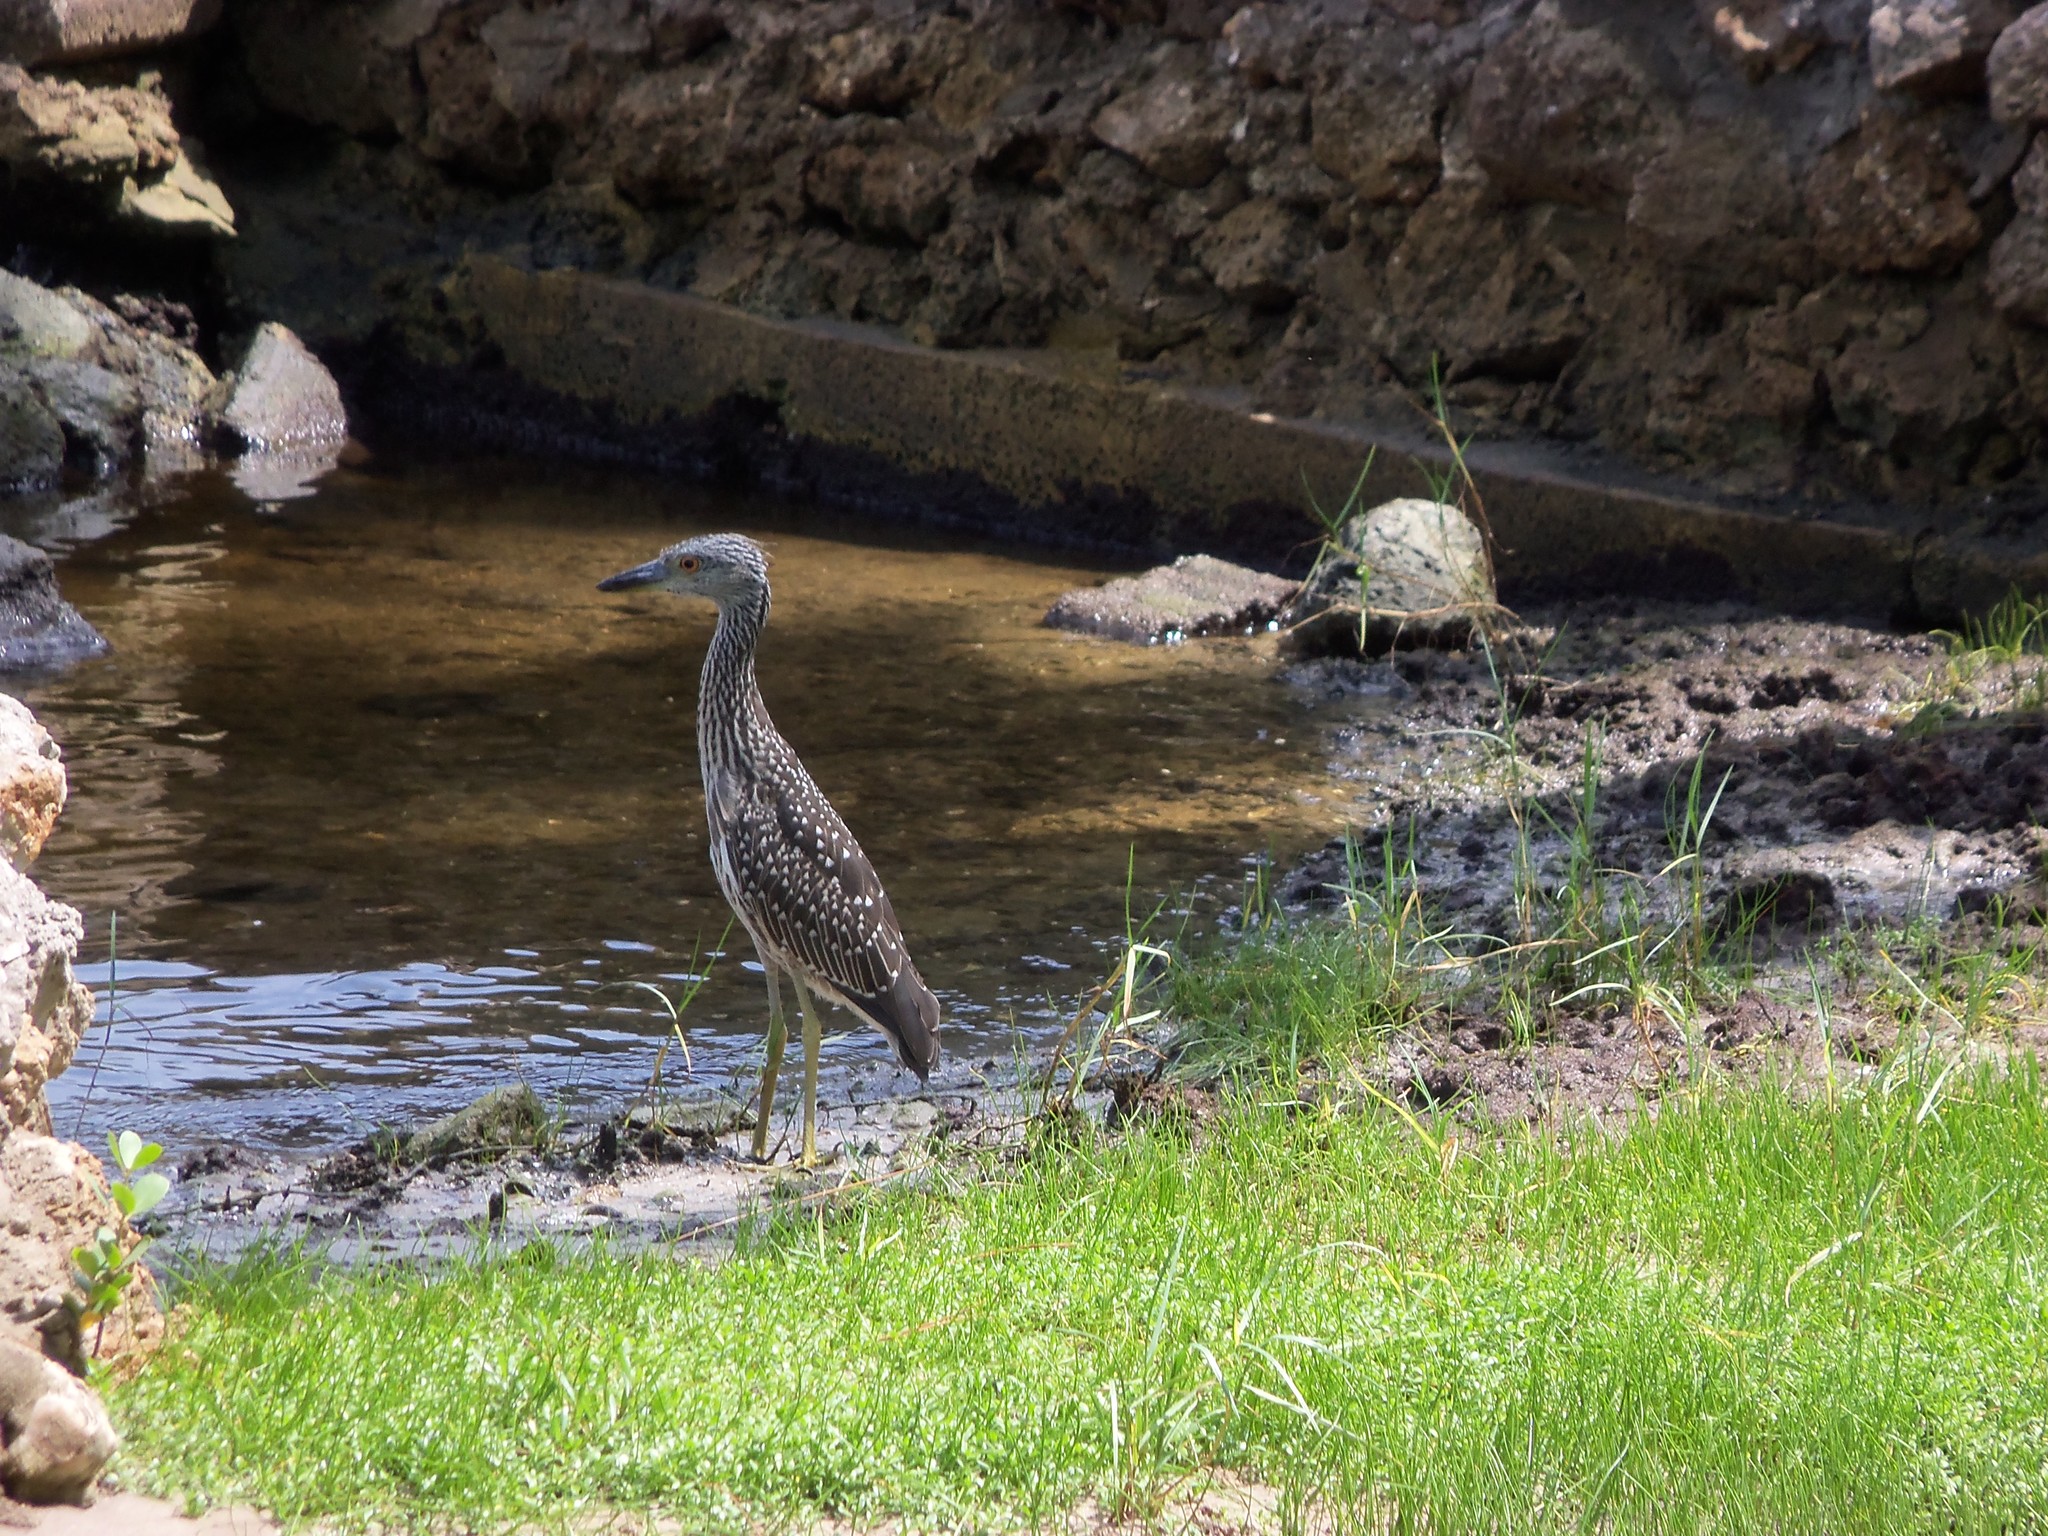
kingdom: Animalia
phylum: Chordata
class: Aves
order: Pelecaniformes
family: Ardeidae
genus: Nyctanassa
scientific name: Nyctanassa violacea
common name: Yellow-crowned night heron
